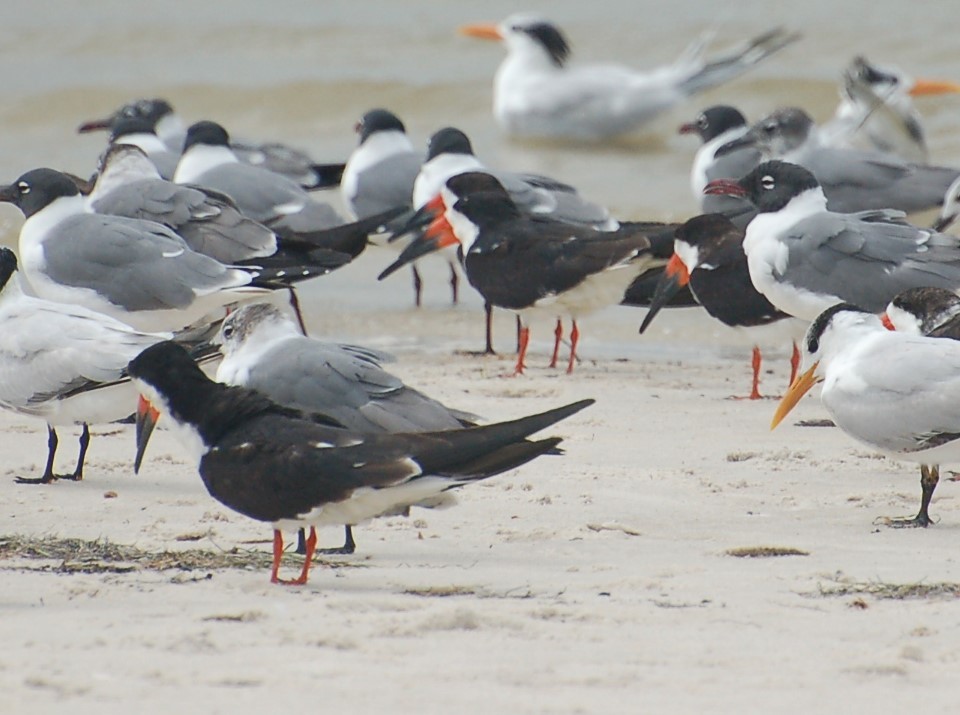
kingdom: Animalia
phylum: Chordata
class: Aves
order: Charadriiformes
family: Laridae
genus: Rynchops
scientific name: Rynchops niger
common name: Black skimmer
